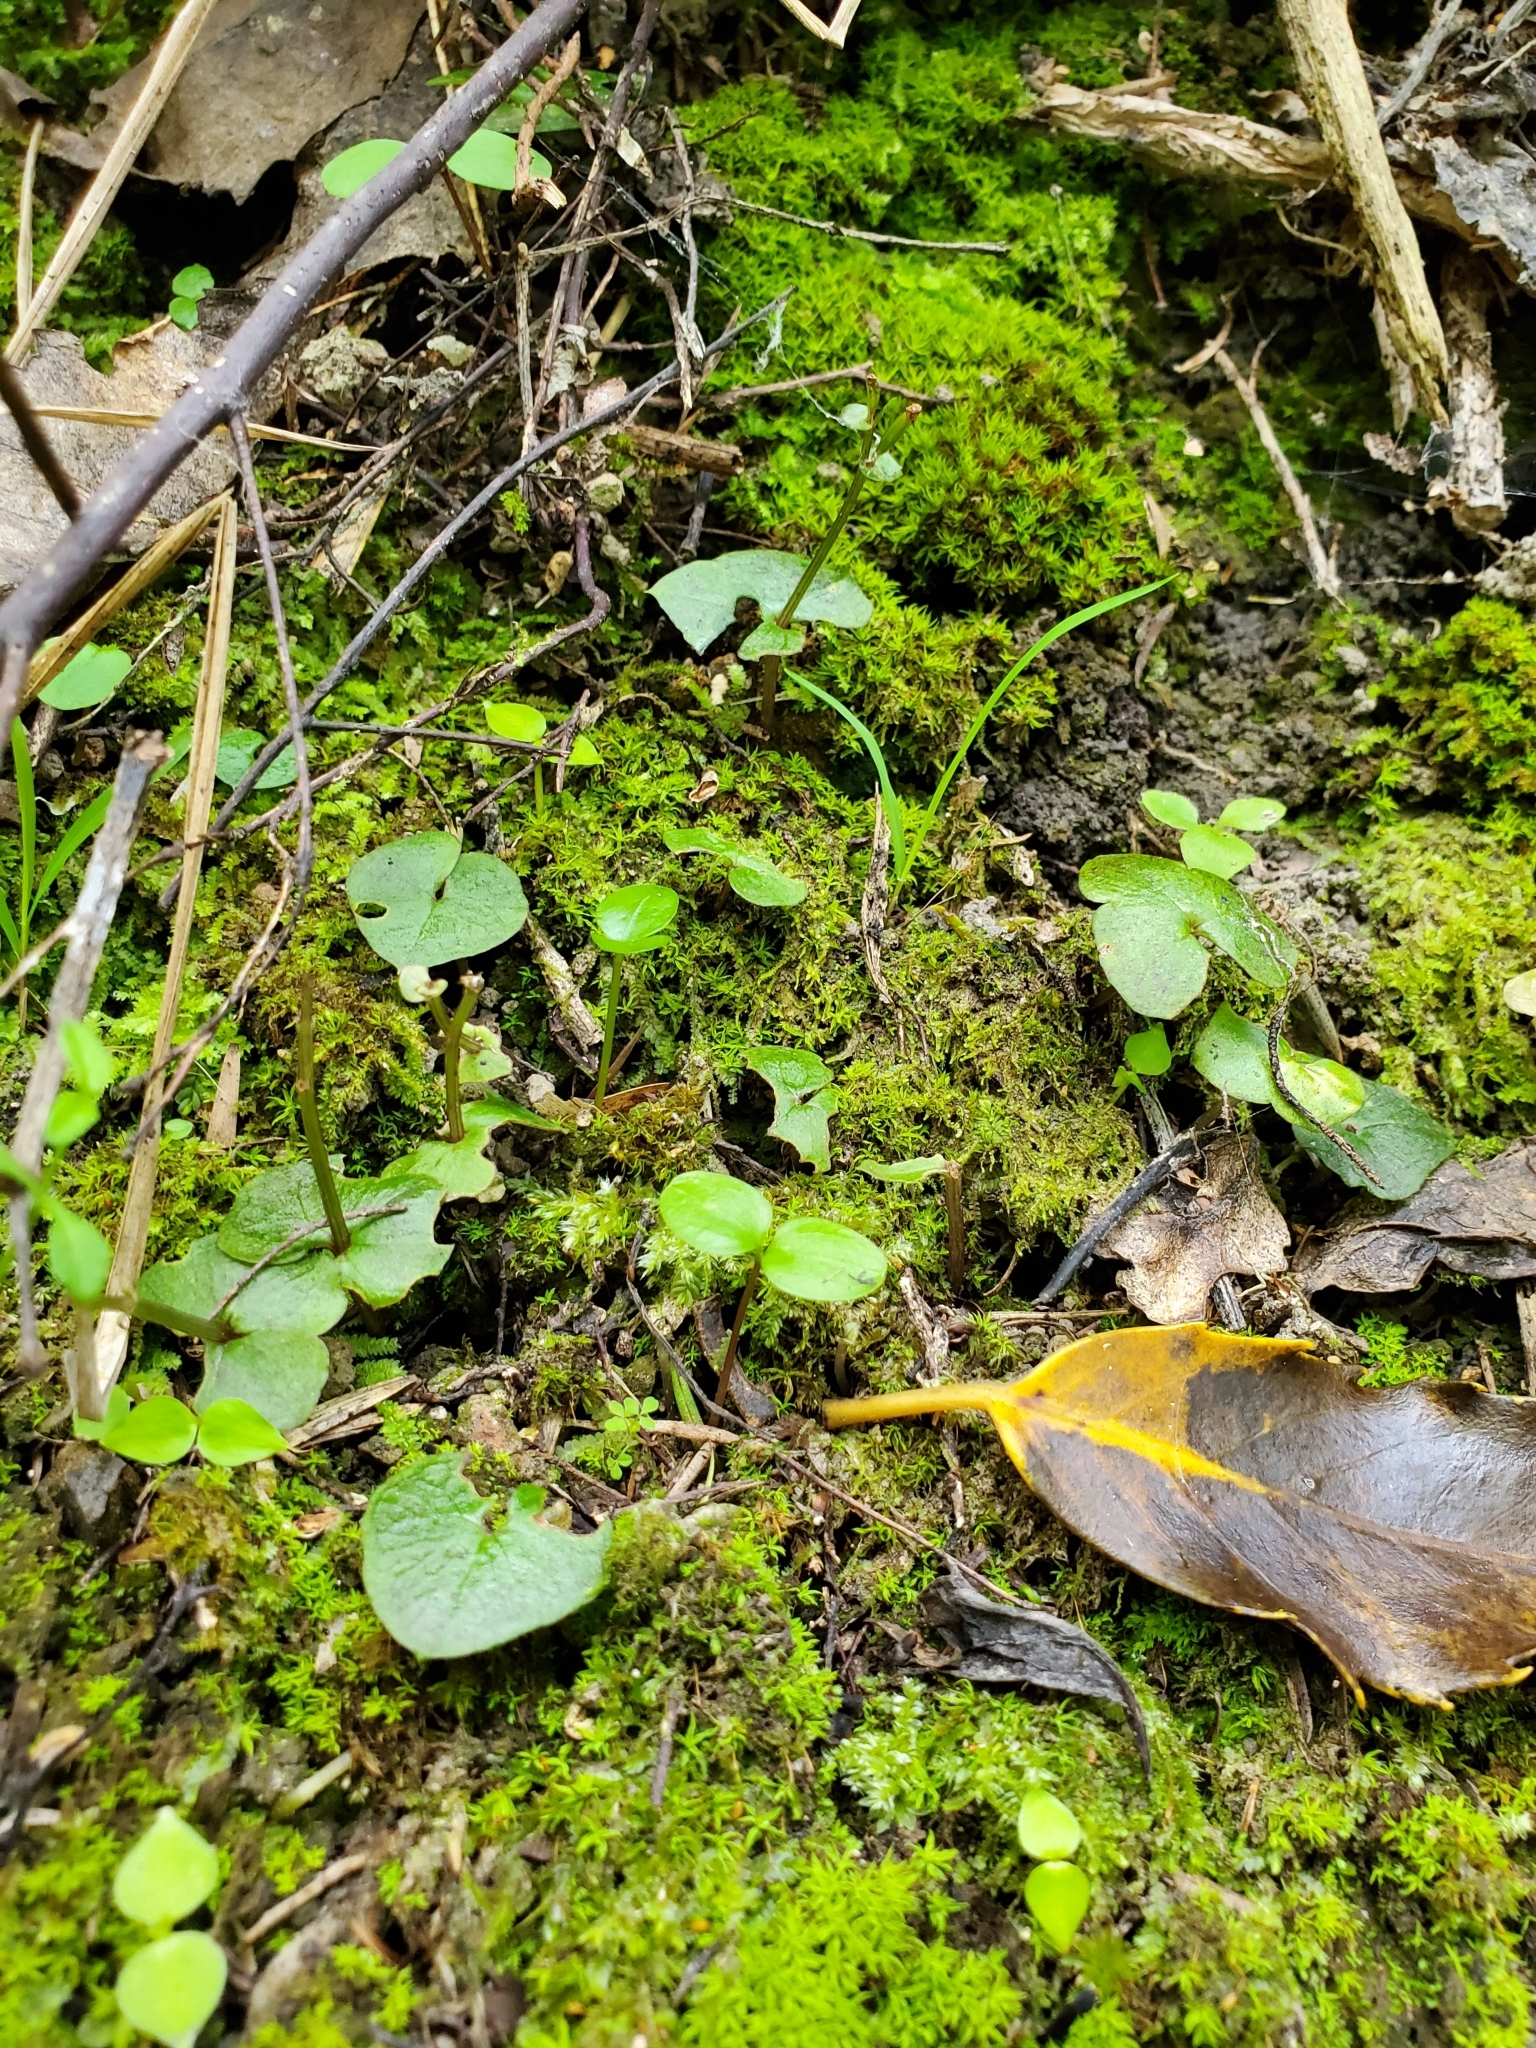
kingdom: Plantae
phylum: Tracheophyta
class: Liliopsida
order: Asparagales
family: Orchidaceae
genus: Acianthus
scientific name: Acianthus sinclairii
